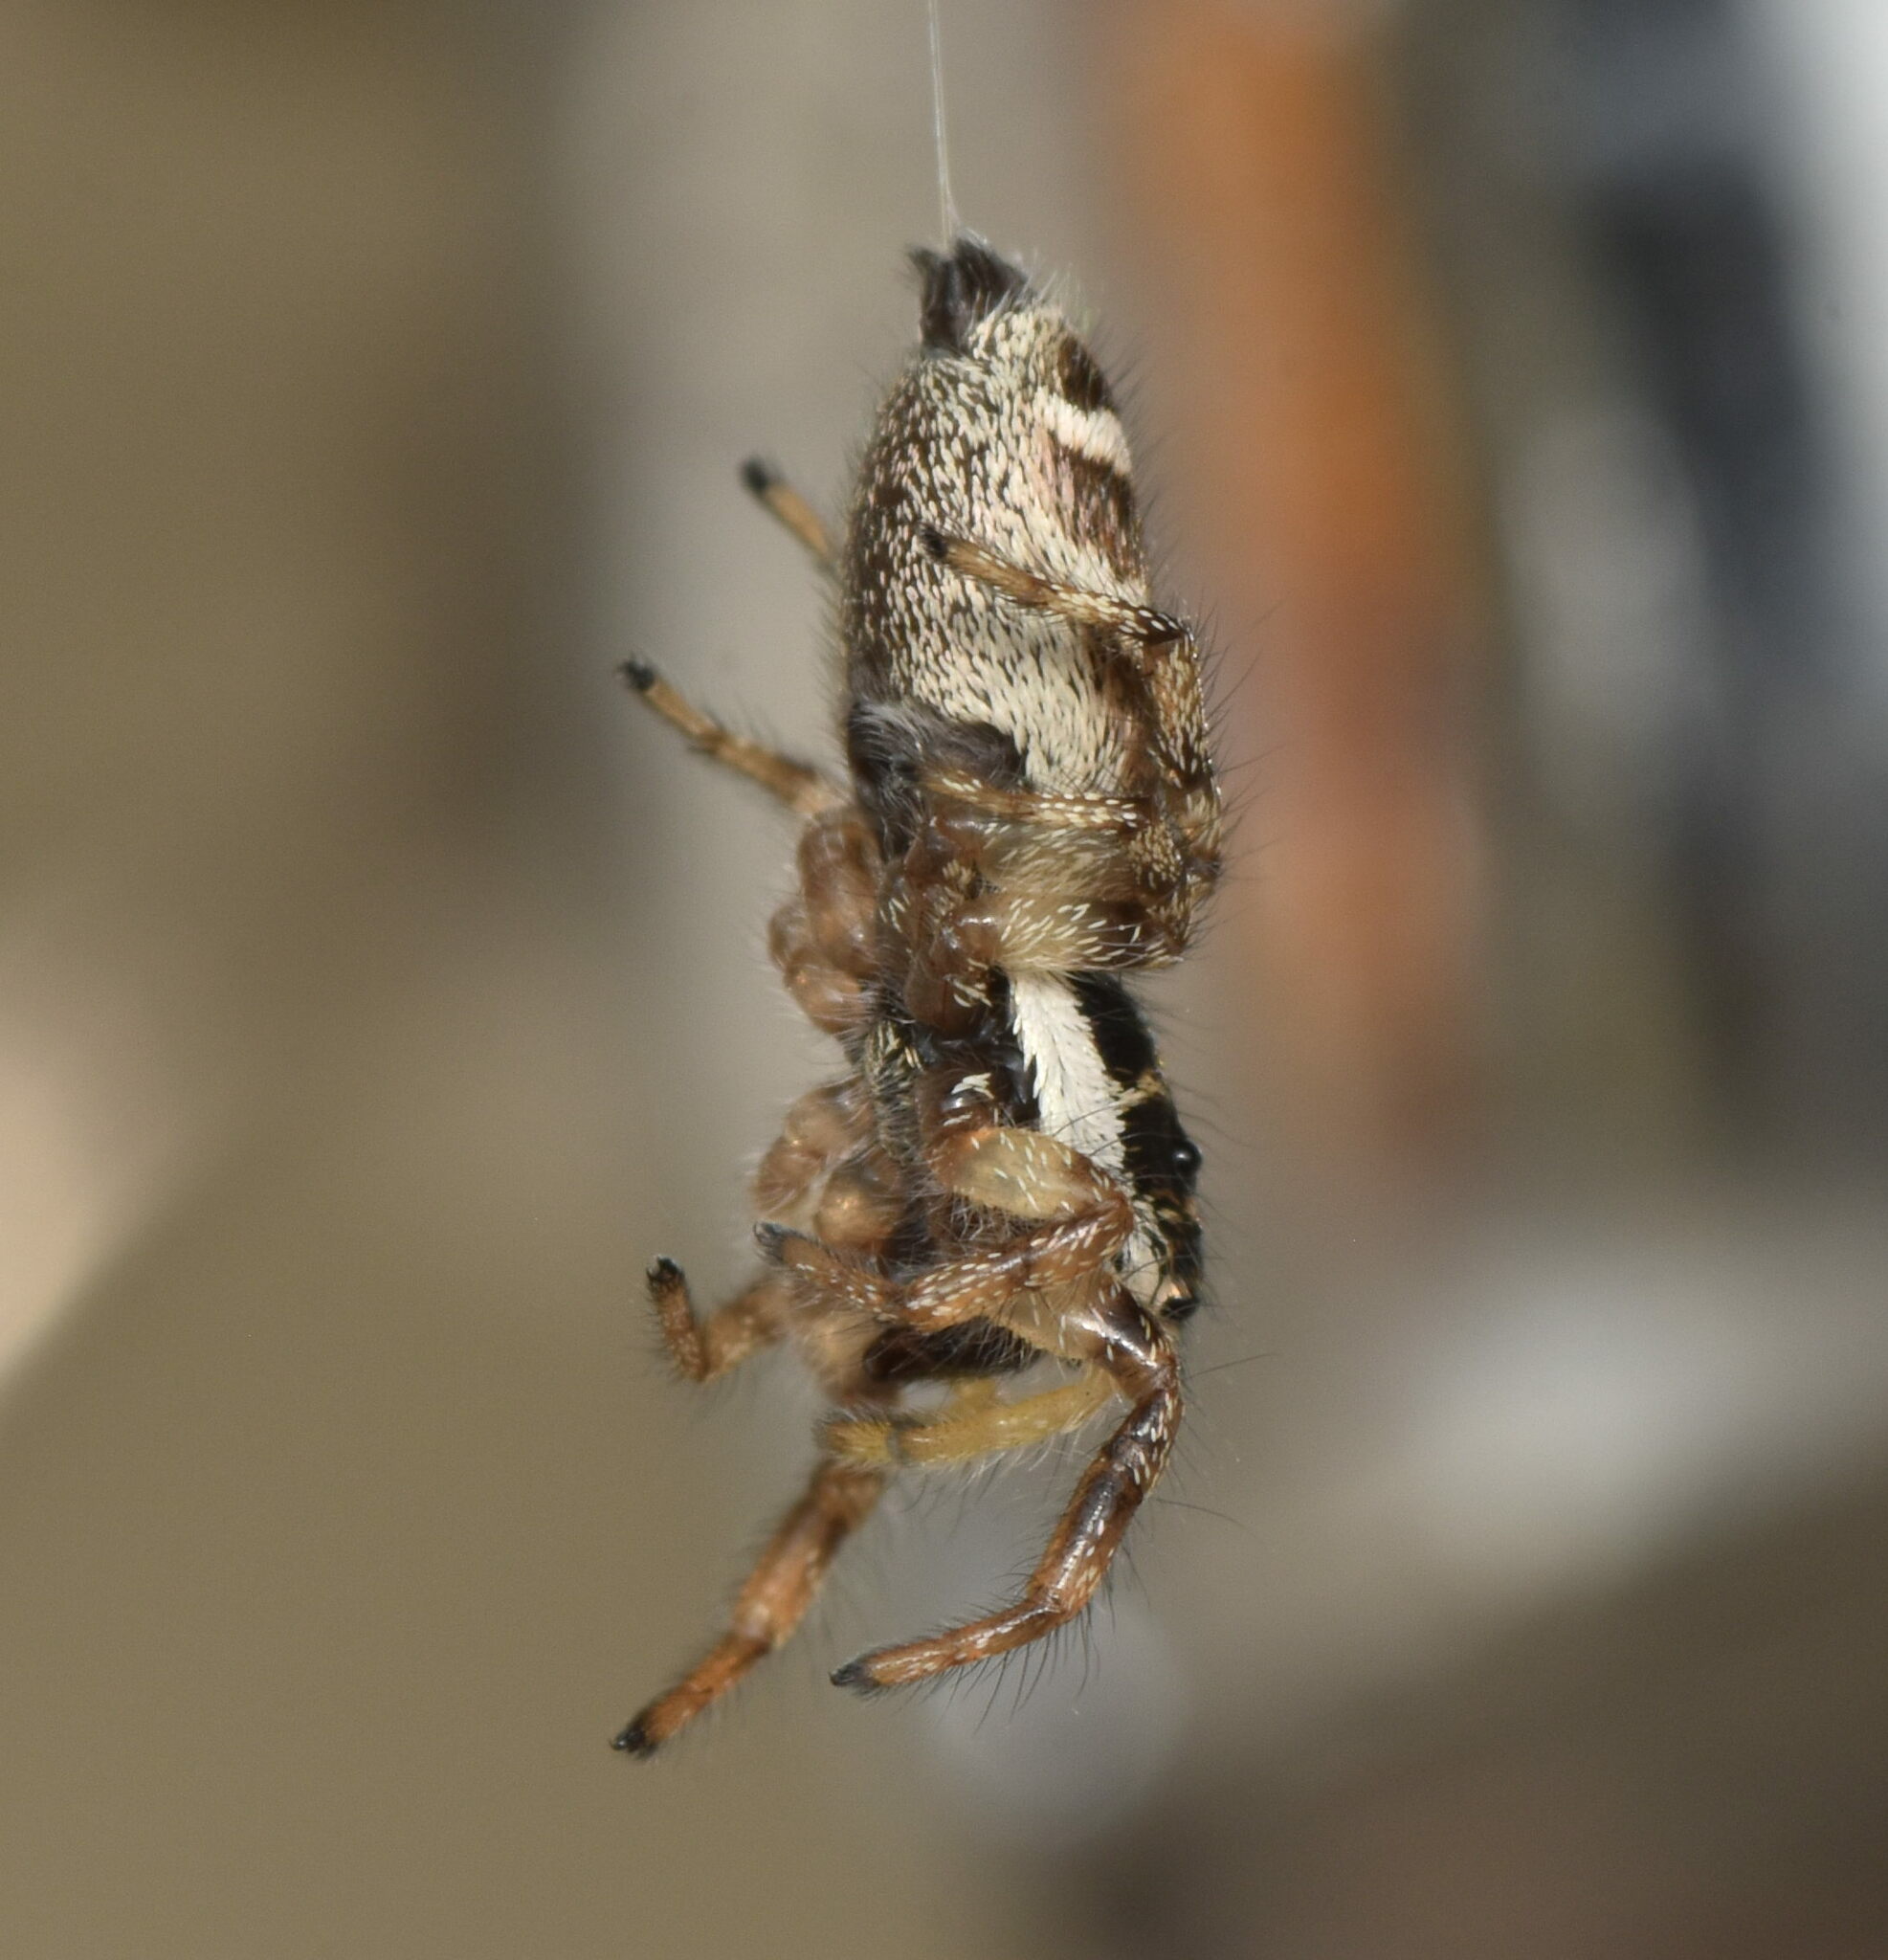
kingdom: Animalia
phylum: Arthropoda
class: Arachnida
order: Araneae
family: Salticidae
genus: Salticus
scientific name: Salticus scenicus
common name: Zebra jumper
